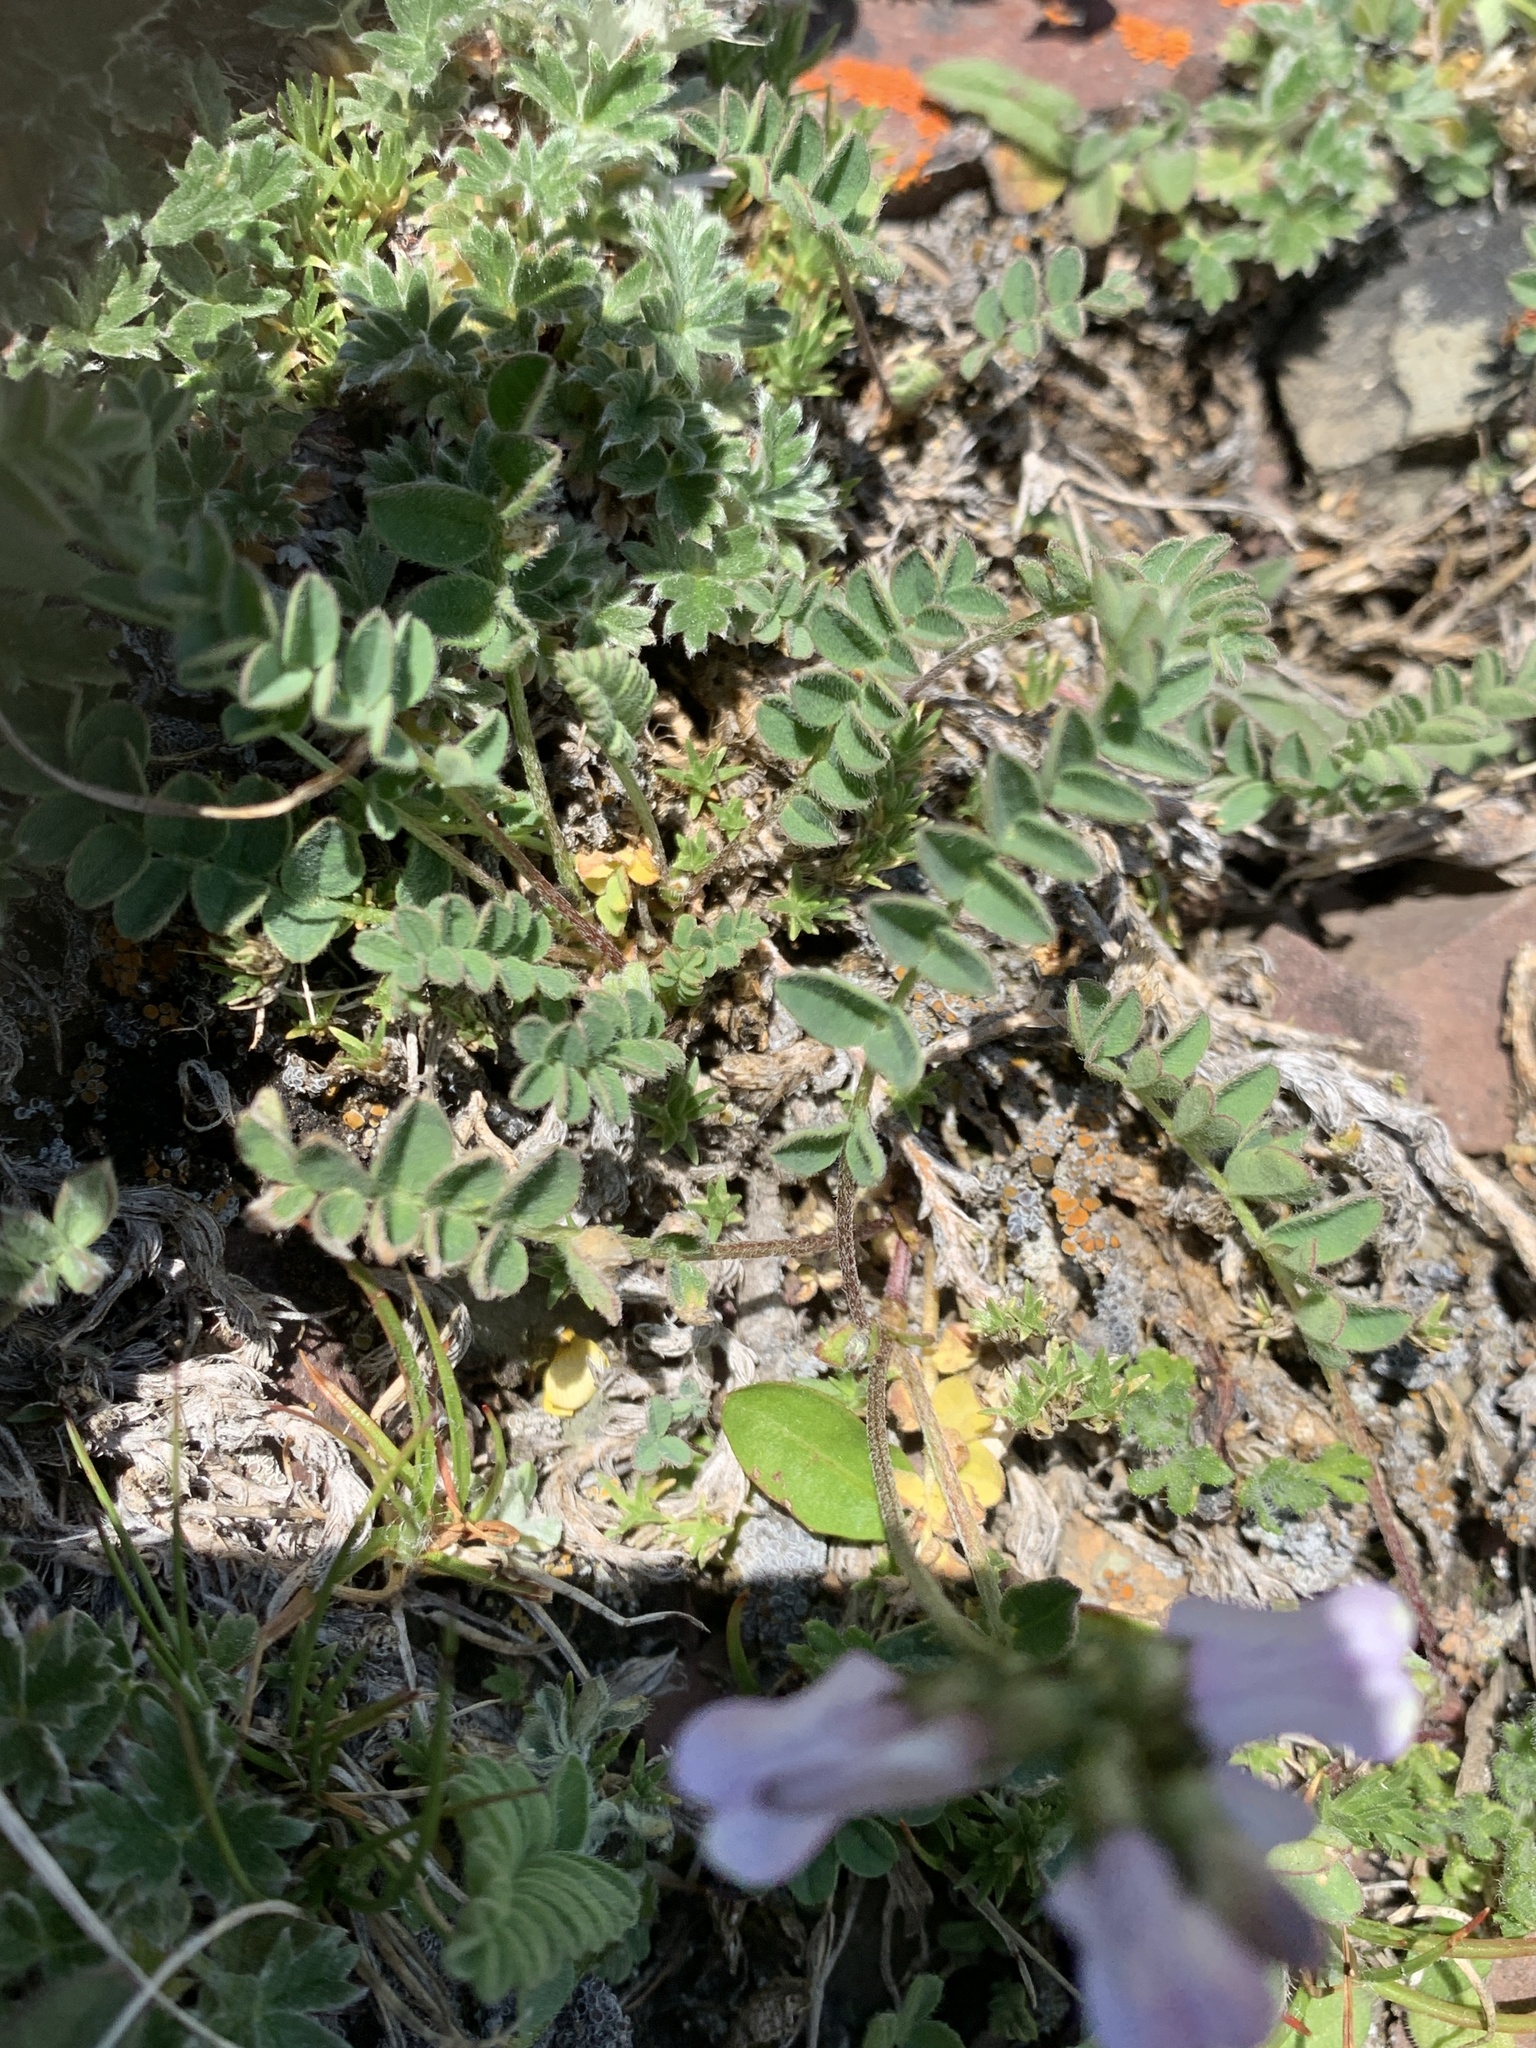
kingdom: Plantae
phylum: Tracheophyta
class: Magnoliopsida
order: Fabales
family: Fabaceae
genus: Astragalus
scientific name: Astragalus alpinus
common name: Alpine milk-vetch
